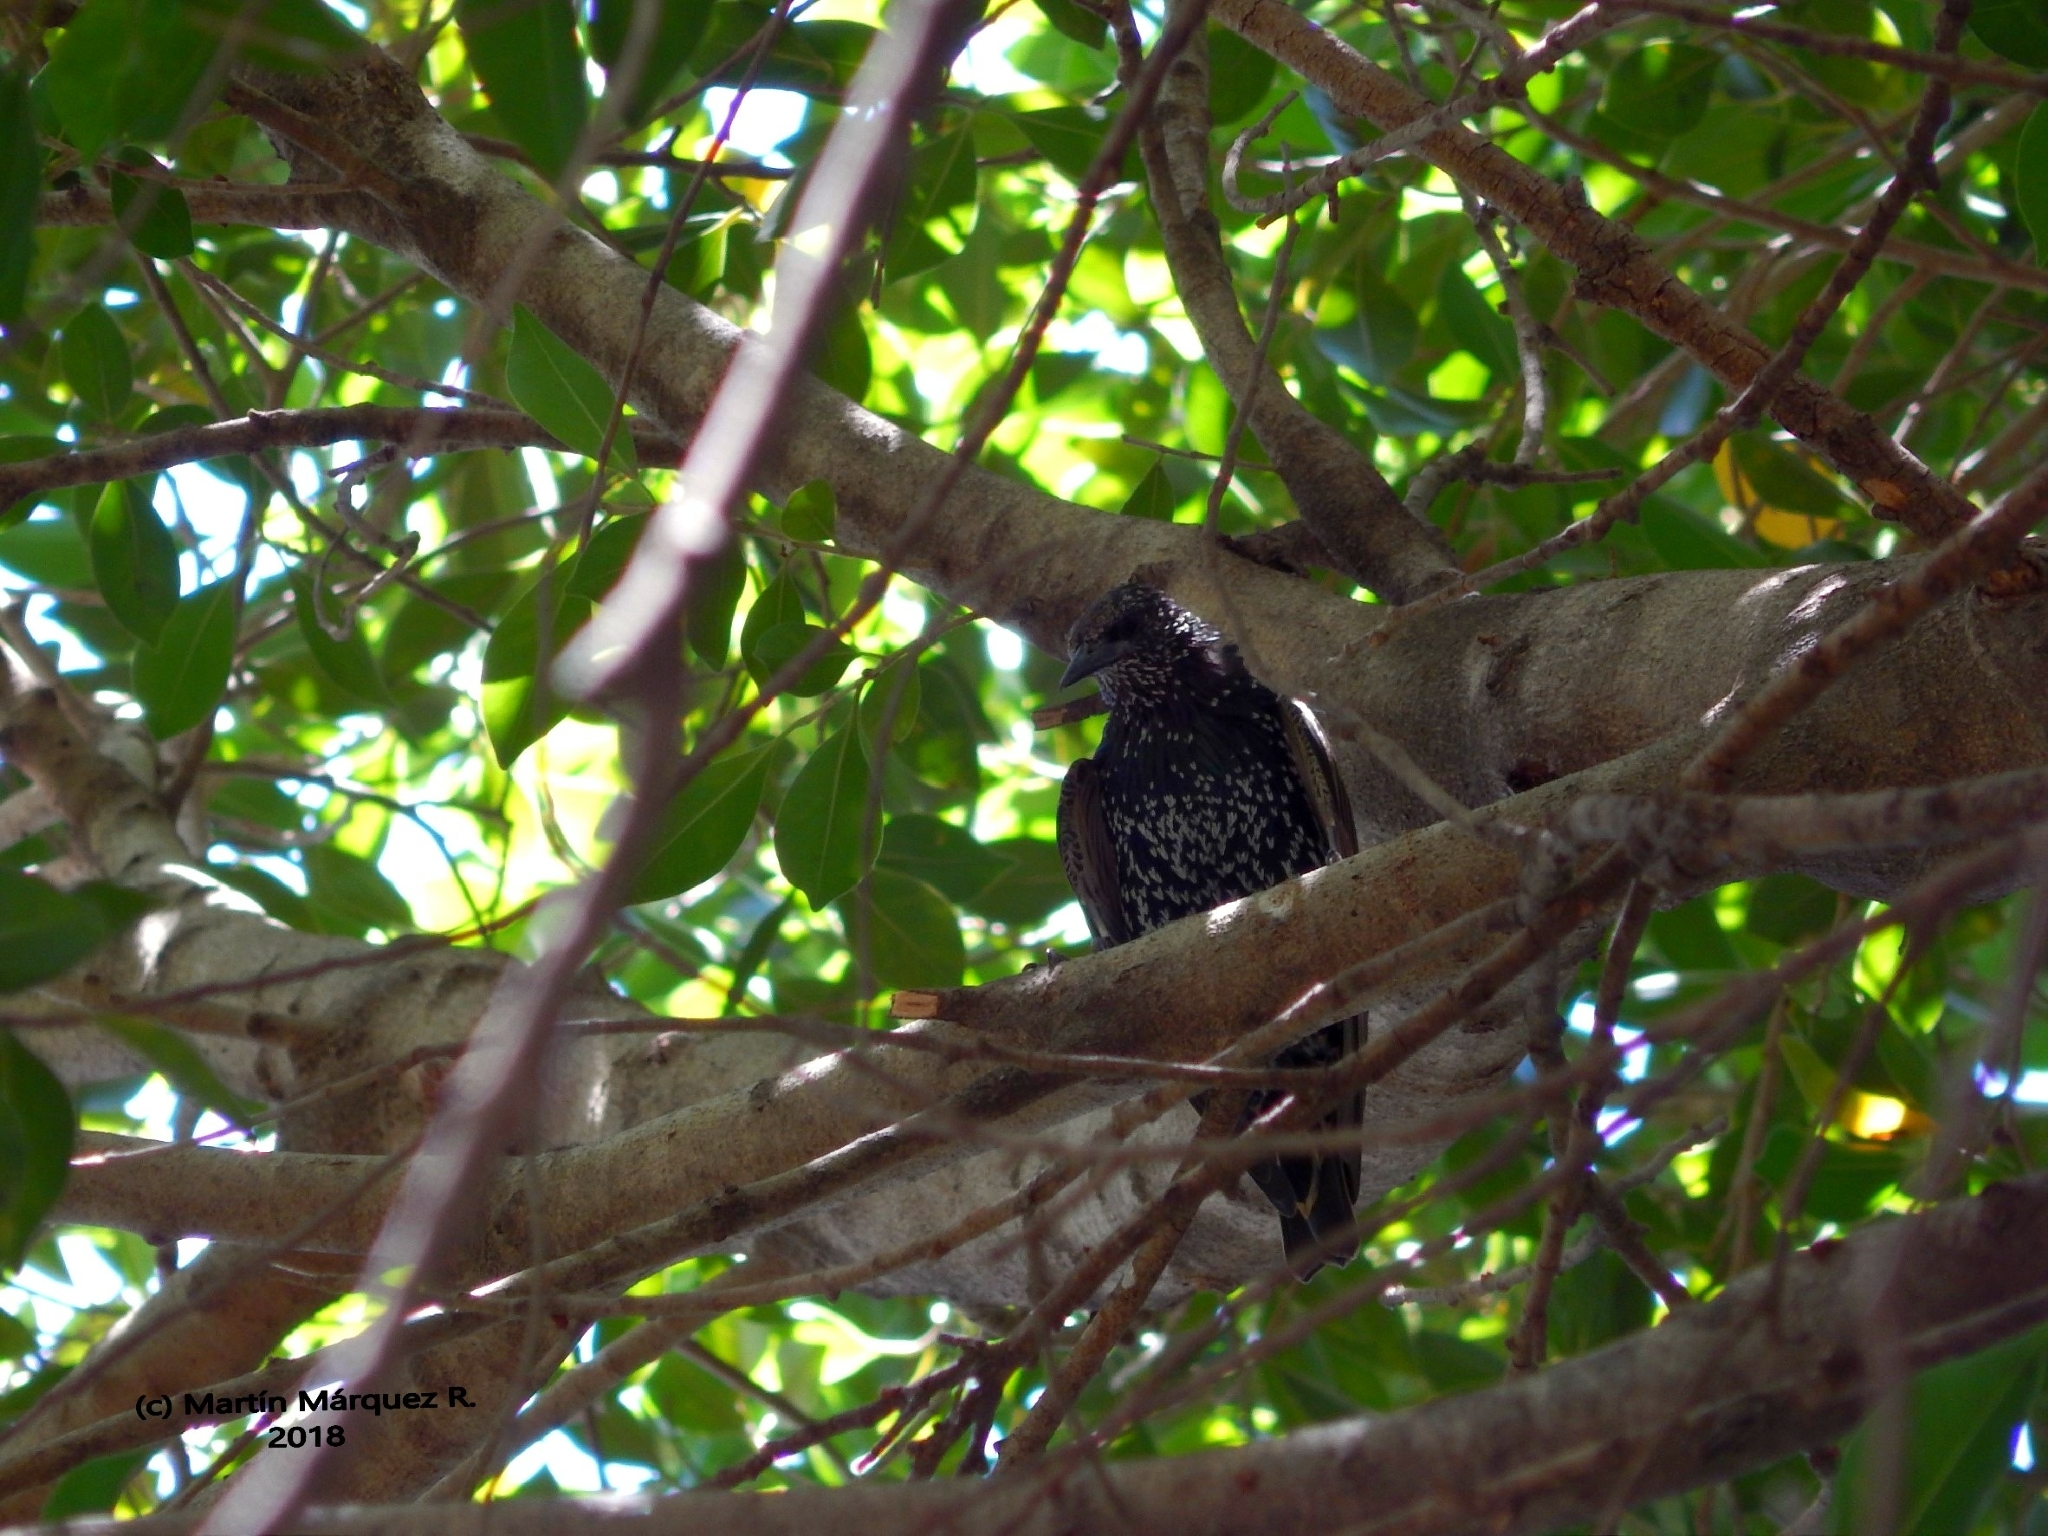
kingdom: Animalia
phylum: Chordata
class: Aves
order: Passeriformes
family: Sturnidae
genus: Sturnus
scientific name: Sturnus vulgaris
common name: Common starling
